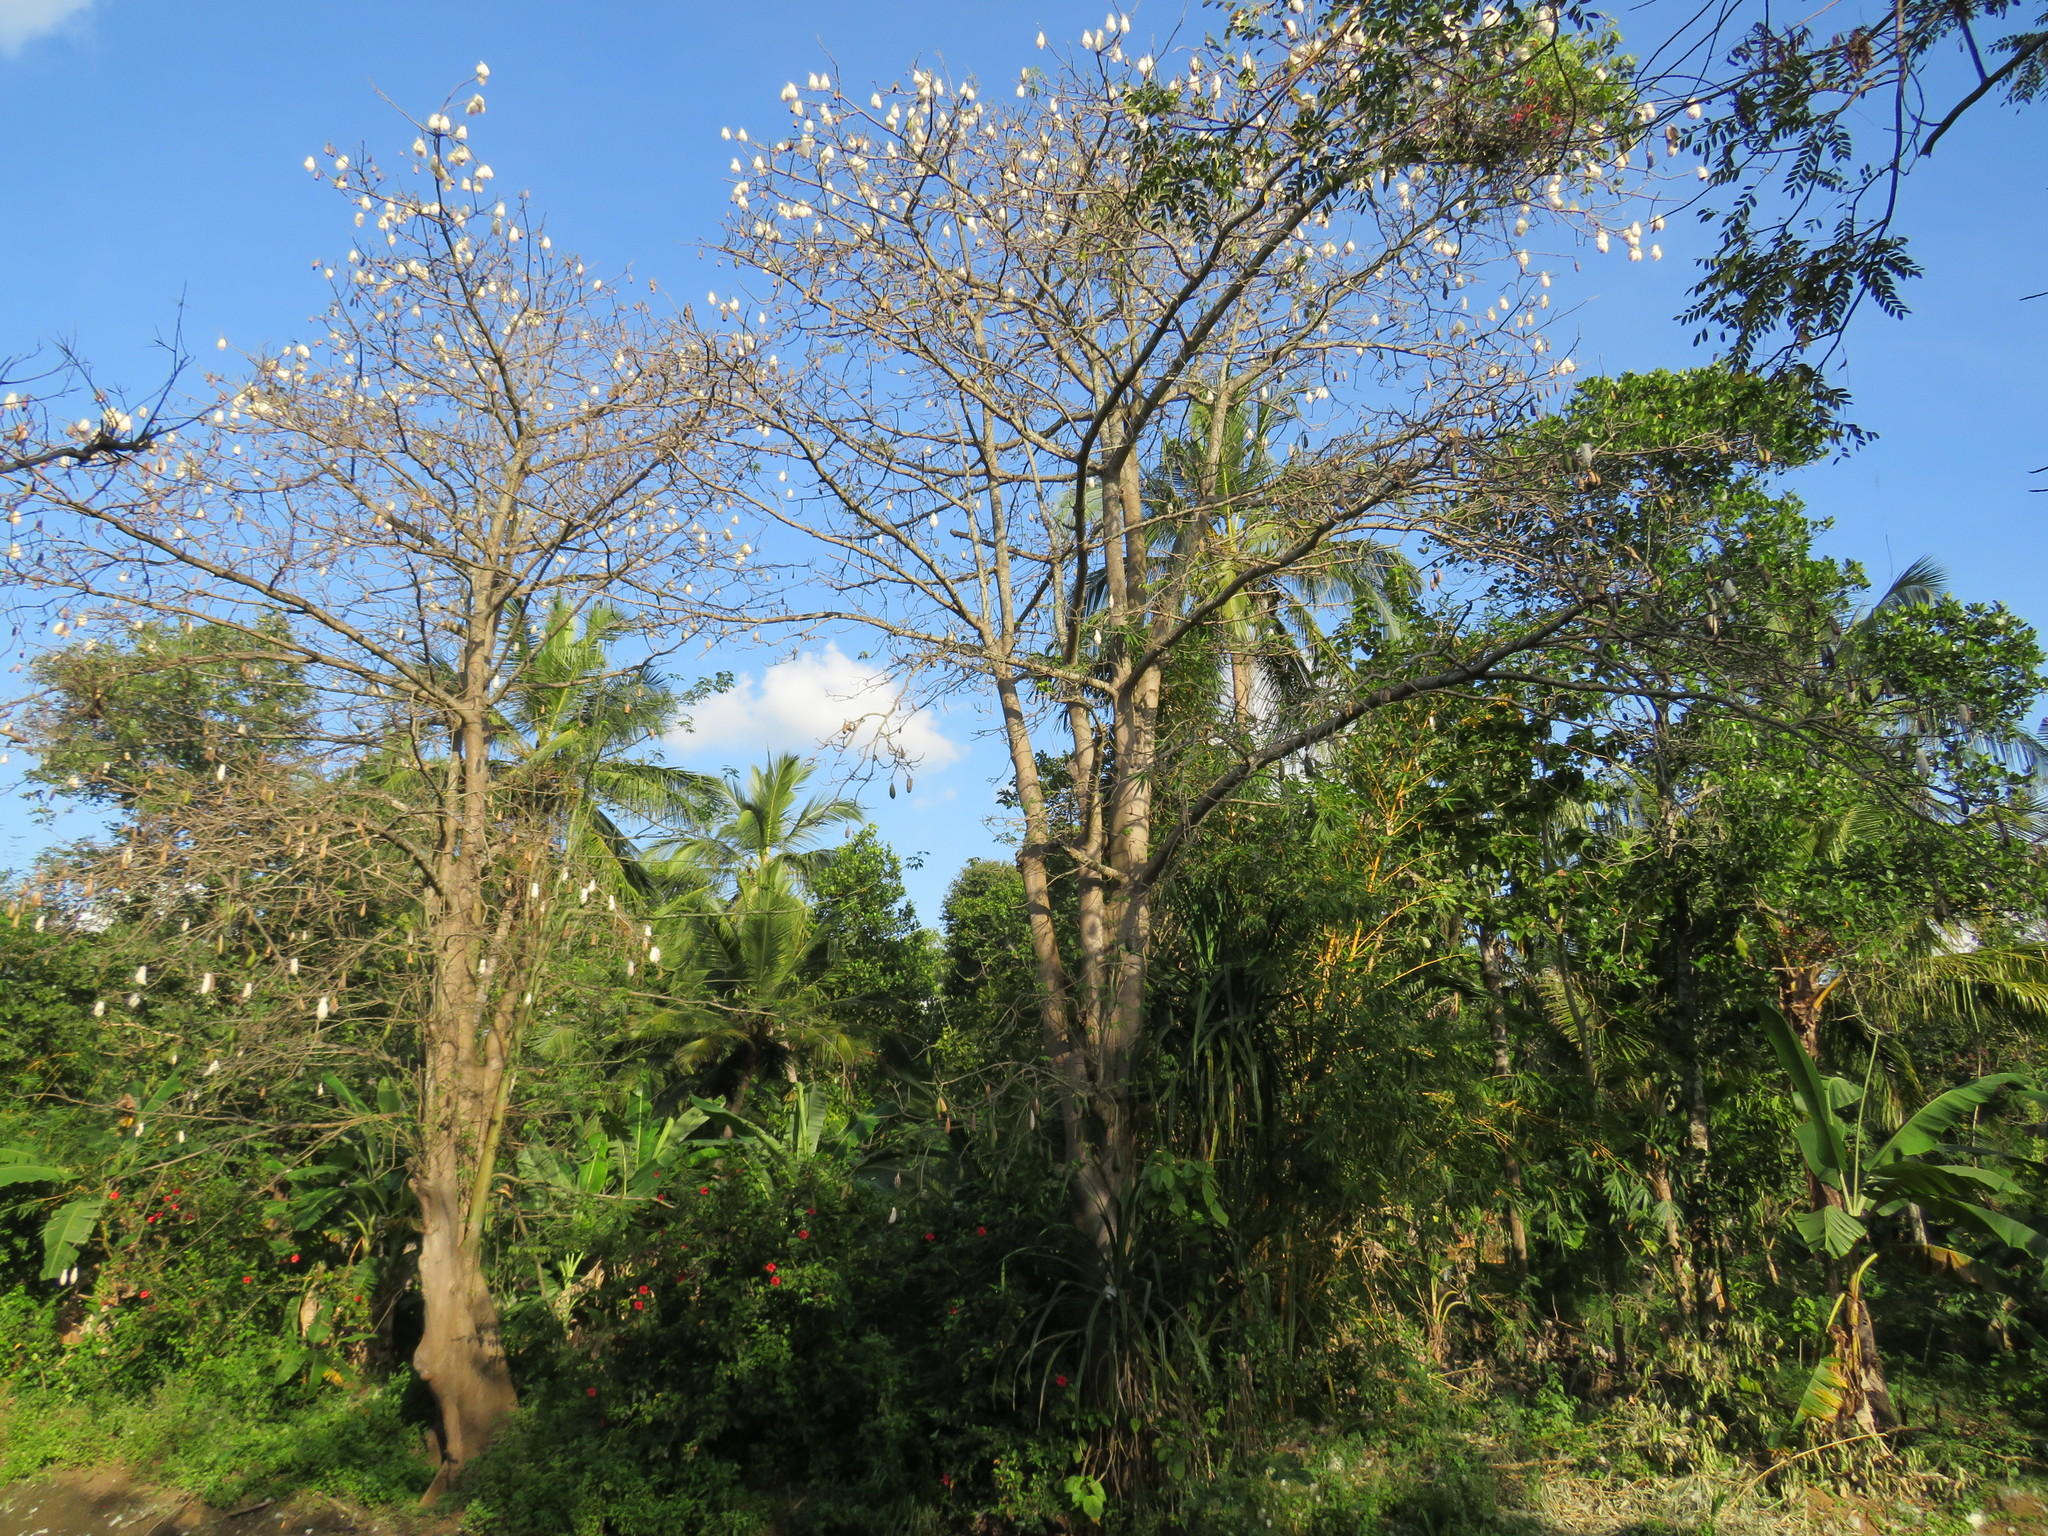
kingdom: Plantae
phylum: Tracheophyta
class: Magnoliopsida
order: Malvales
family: Malvaceae
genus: Ceiba
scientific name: Ceiba pentandra
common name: Kapok
